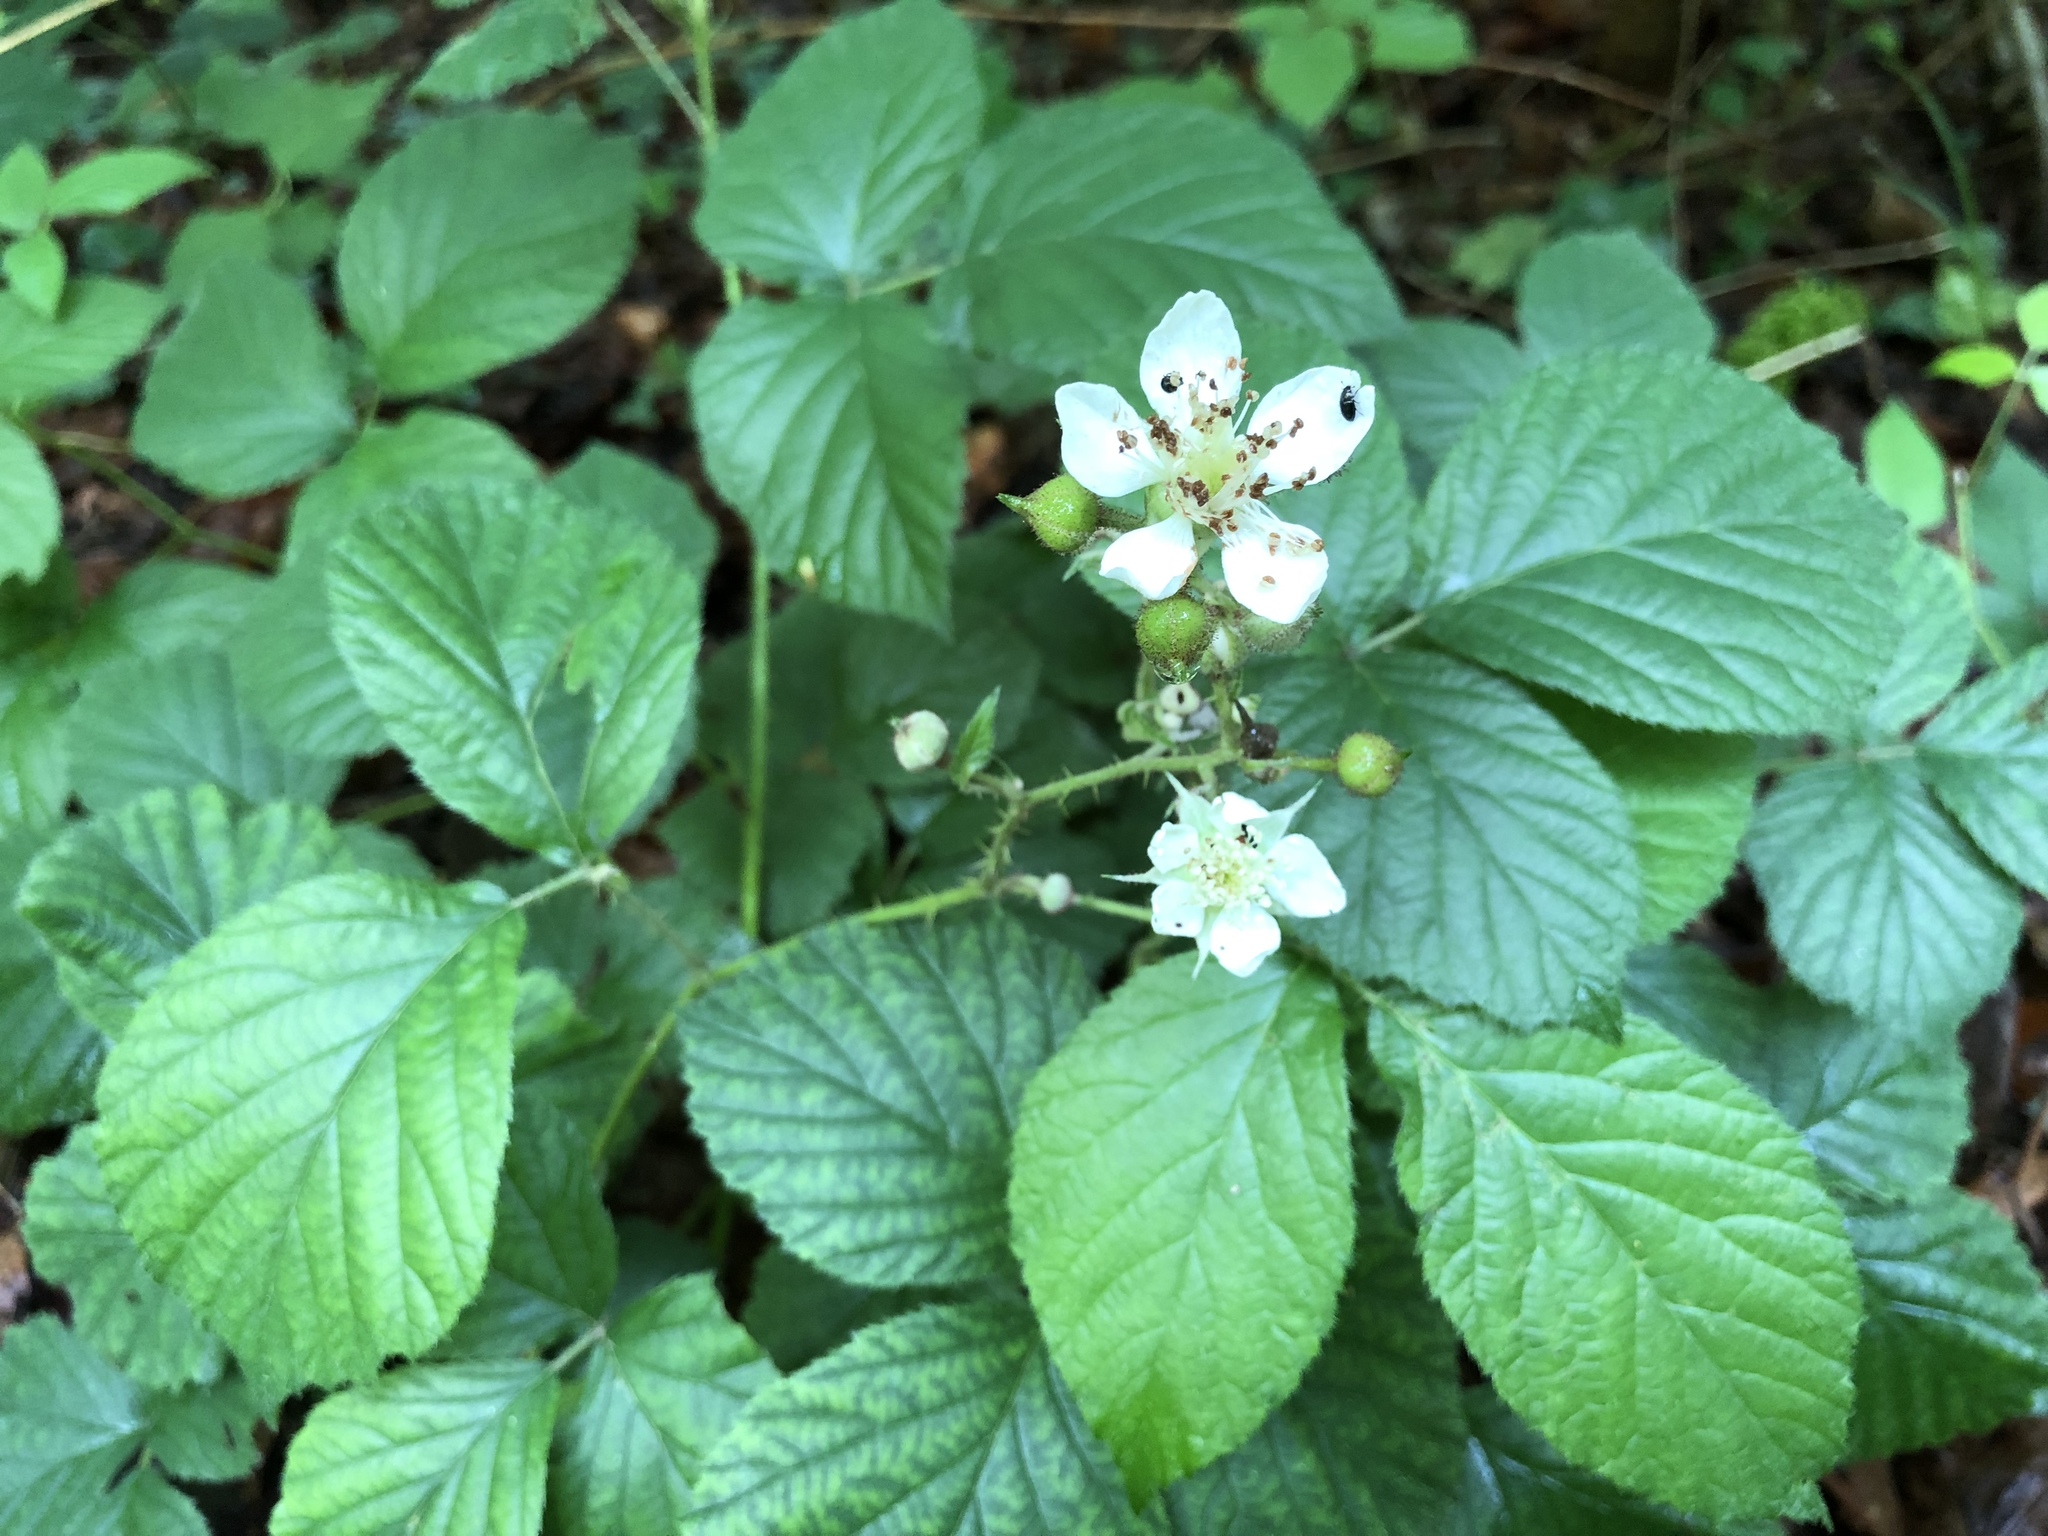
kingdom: Plantae
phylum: Tracheophyta
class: Magnoliopsida
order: Rosales
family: Rosaceae
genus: Rubus
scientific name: Rubus caesius
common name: Dewberry
